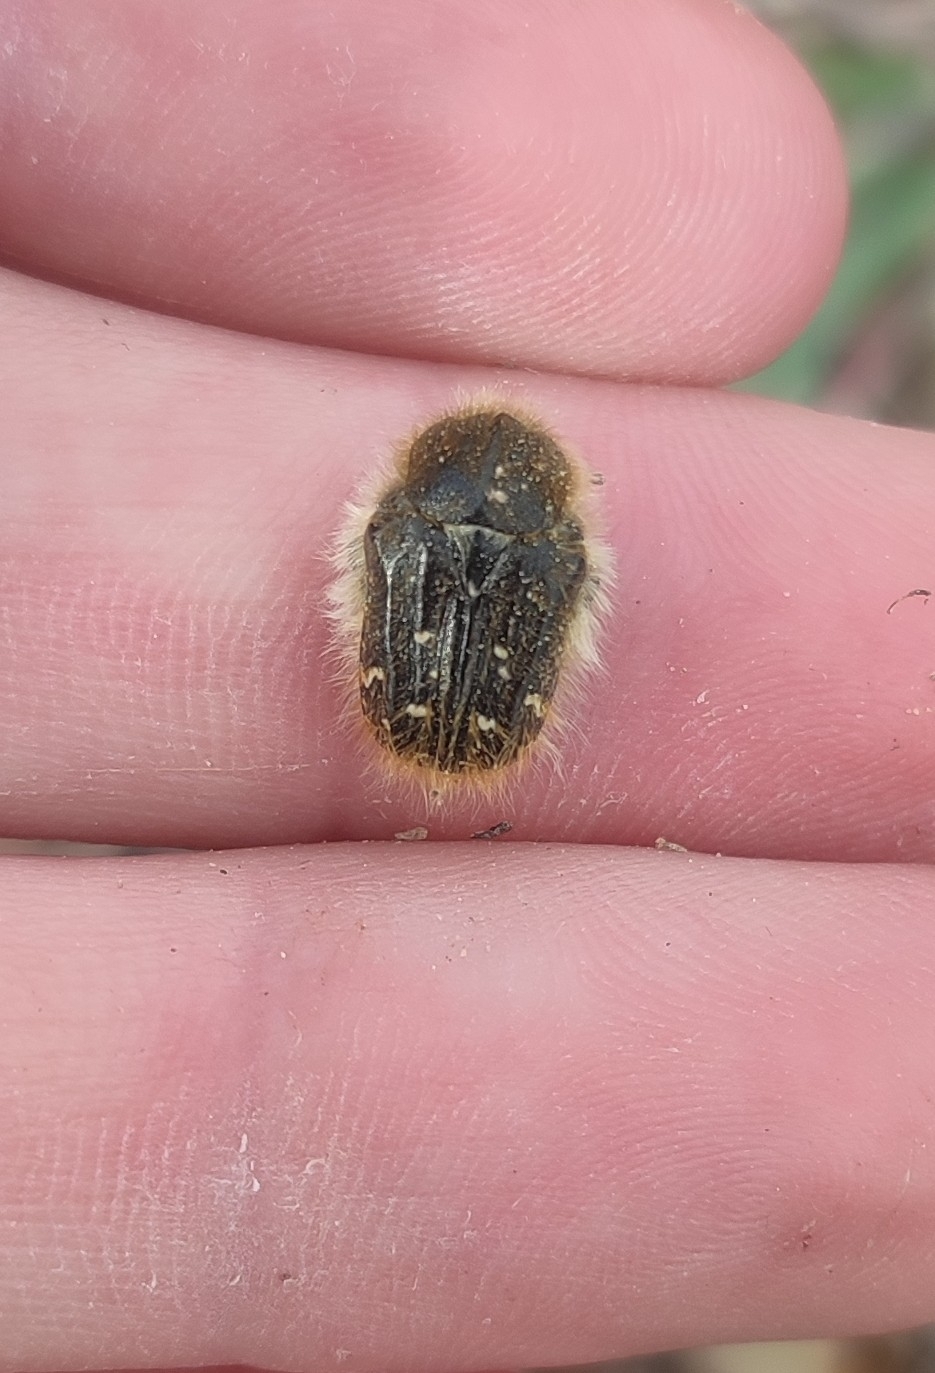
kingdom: Animalia
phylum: Arthropoda
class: Insecta
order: Coleoptera
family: Scarabaeidae
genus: Tropinota
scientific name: Tropinota squalida
